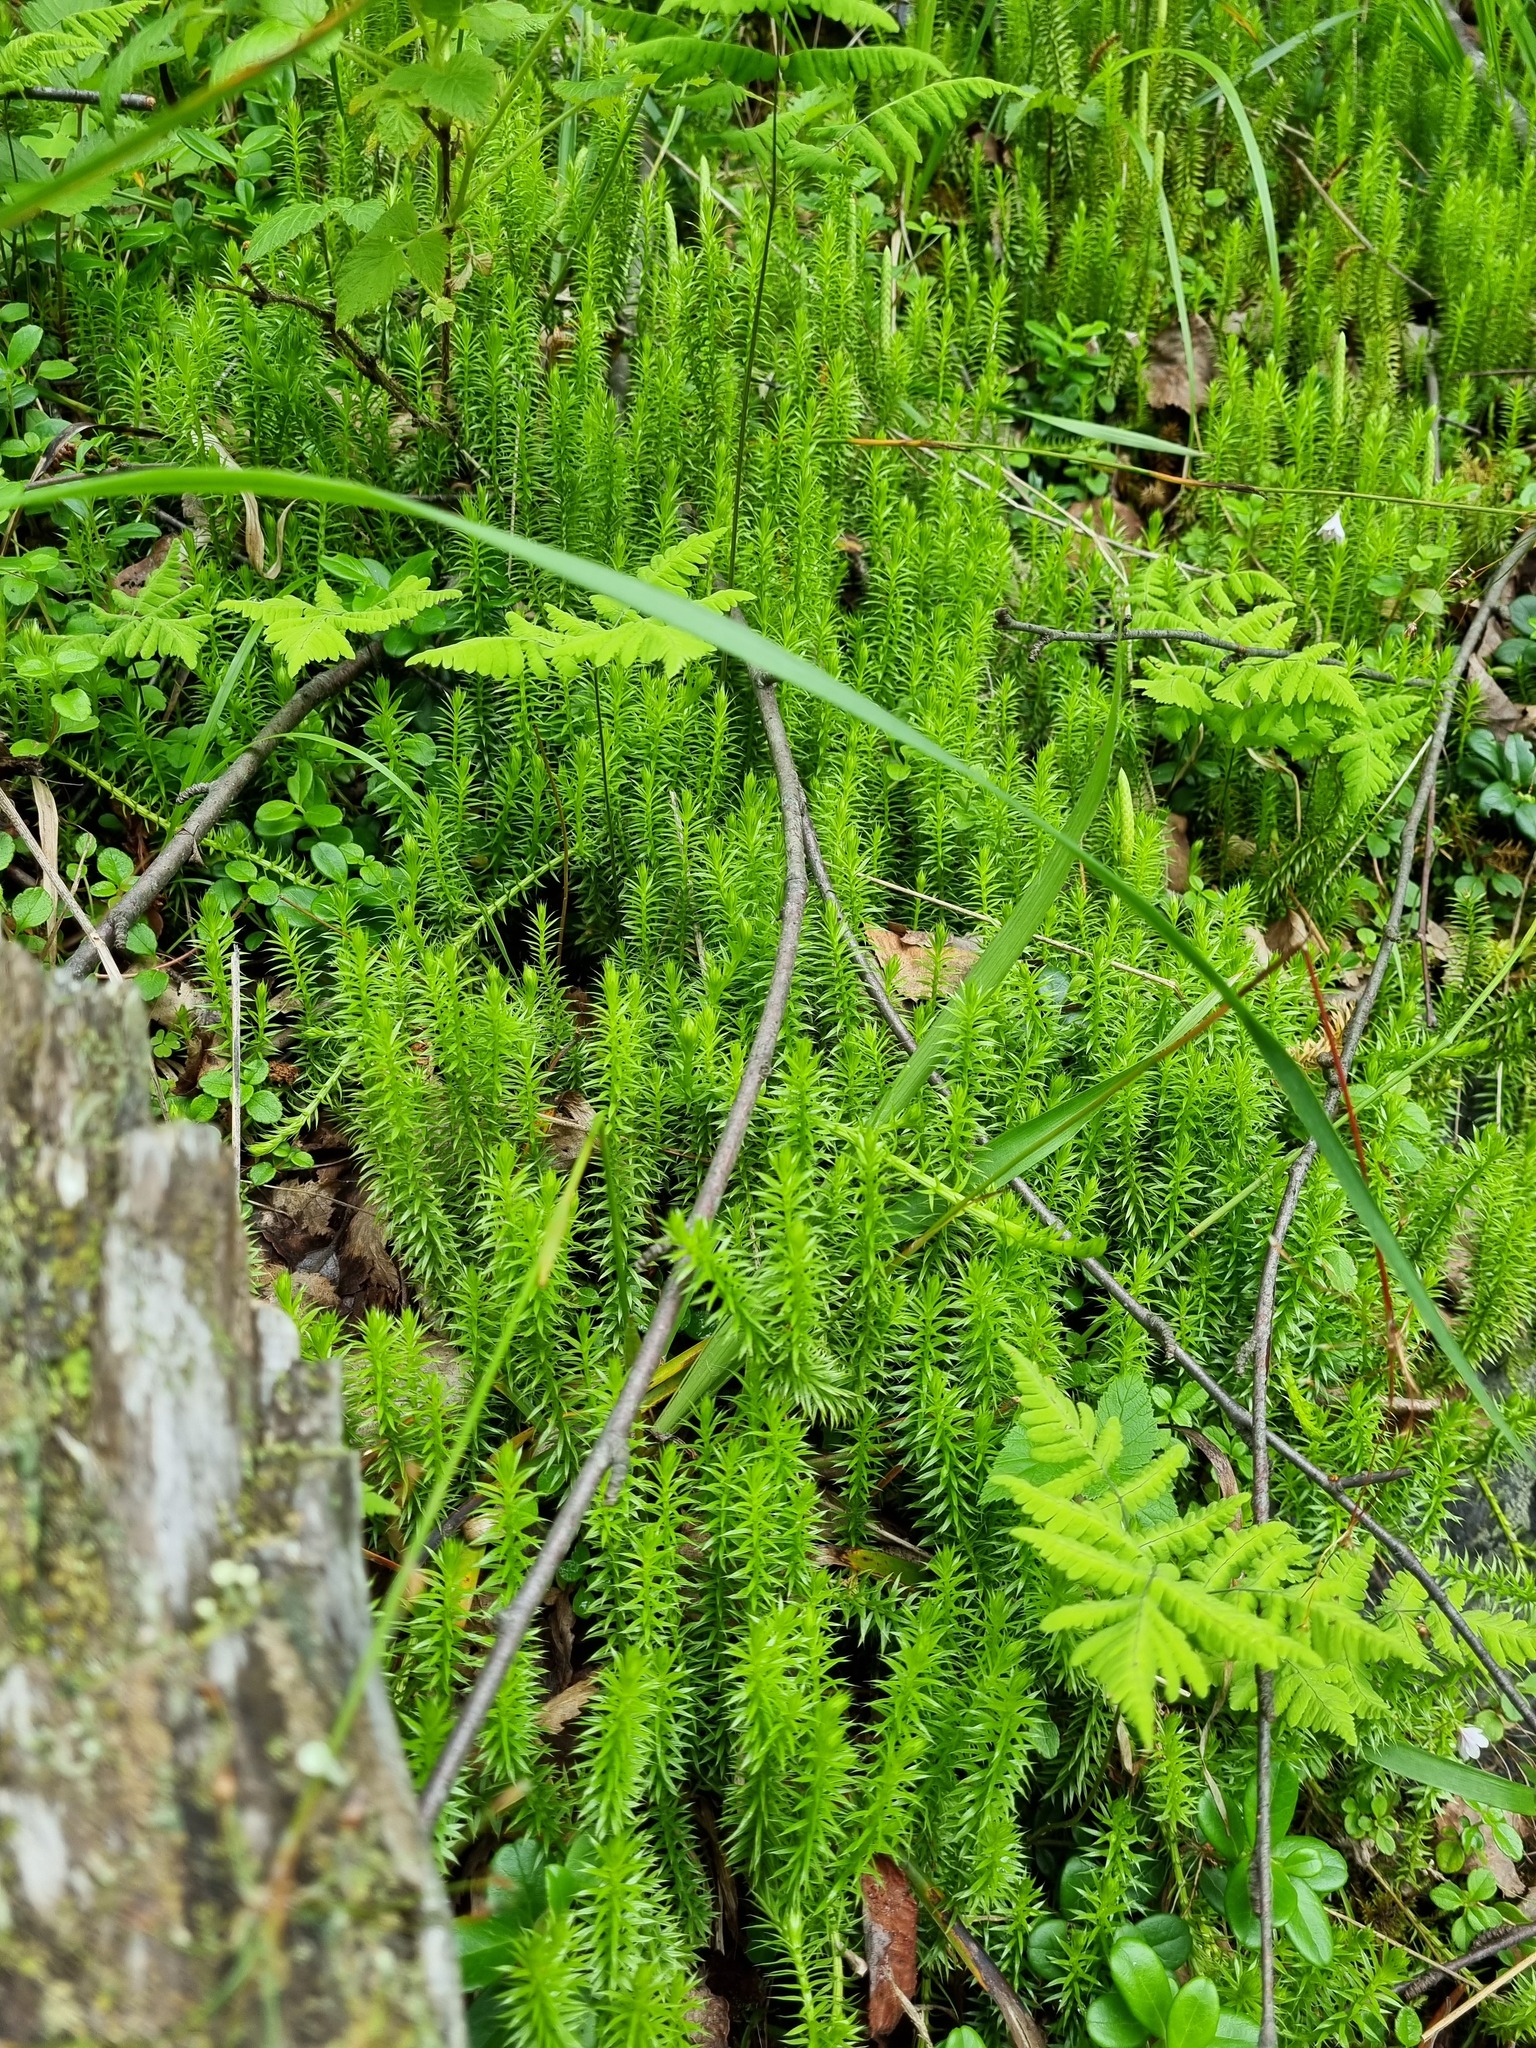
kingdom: Plantae
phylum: Tracheophyta
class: Lycopodiopsida
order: Lycopodiales
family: Lycopodiaceae
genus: Spinulum
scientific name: Spinulum annotinum
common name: Interrupted club-moss
